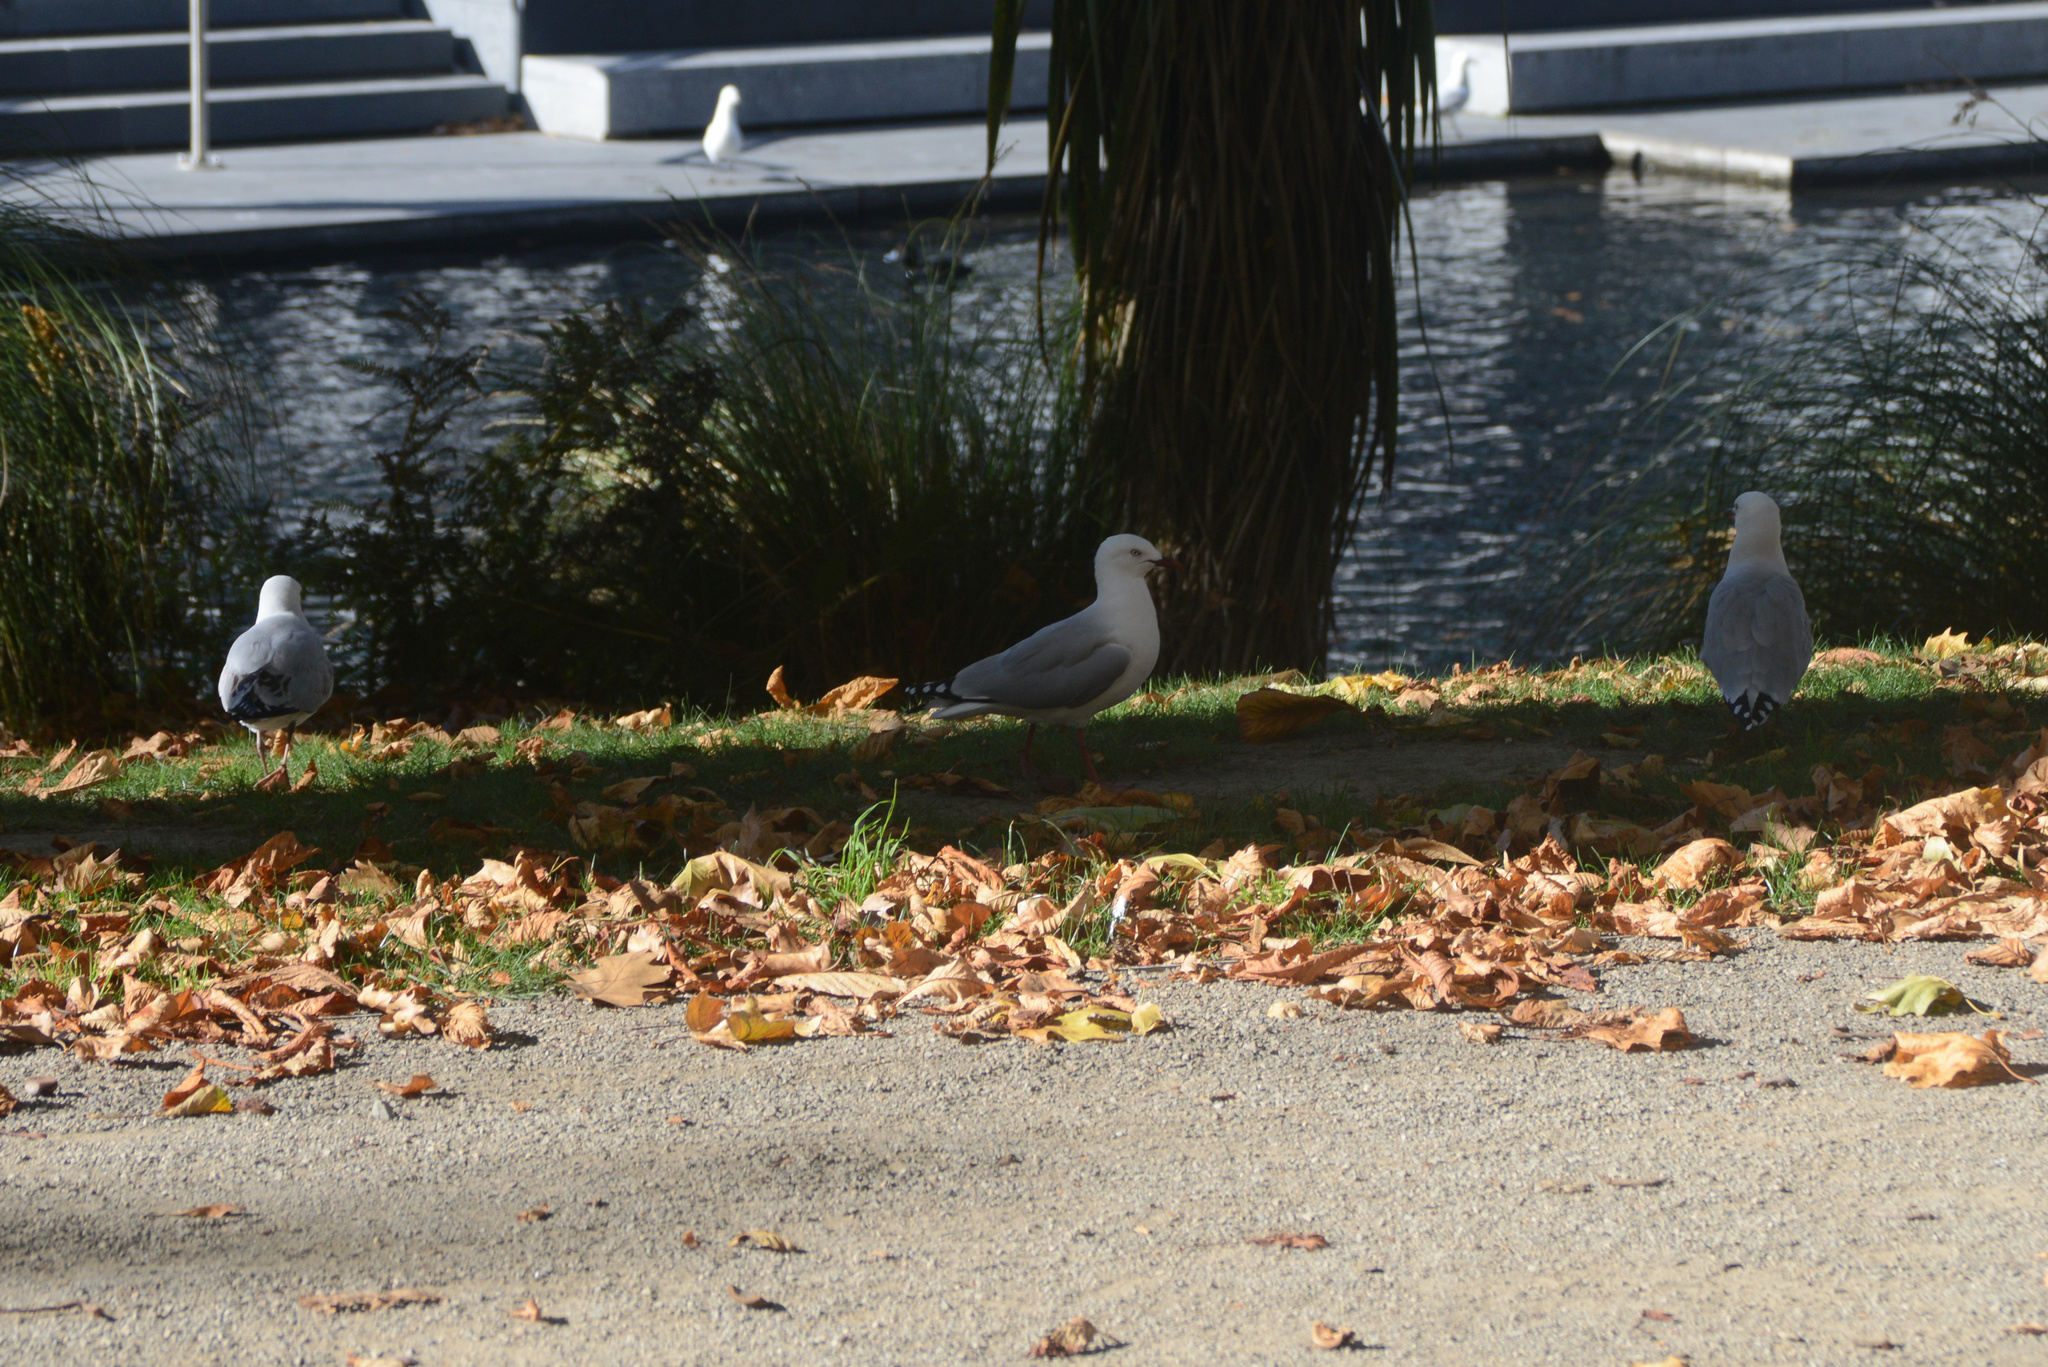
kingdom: Animalia
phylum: Chordata
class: Aves
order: Charadriiformes
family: Laridae
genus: Chroicocephalus
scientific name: Chroicocephalus novaehollandiae
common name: Silver gull
